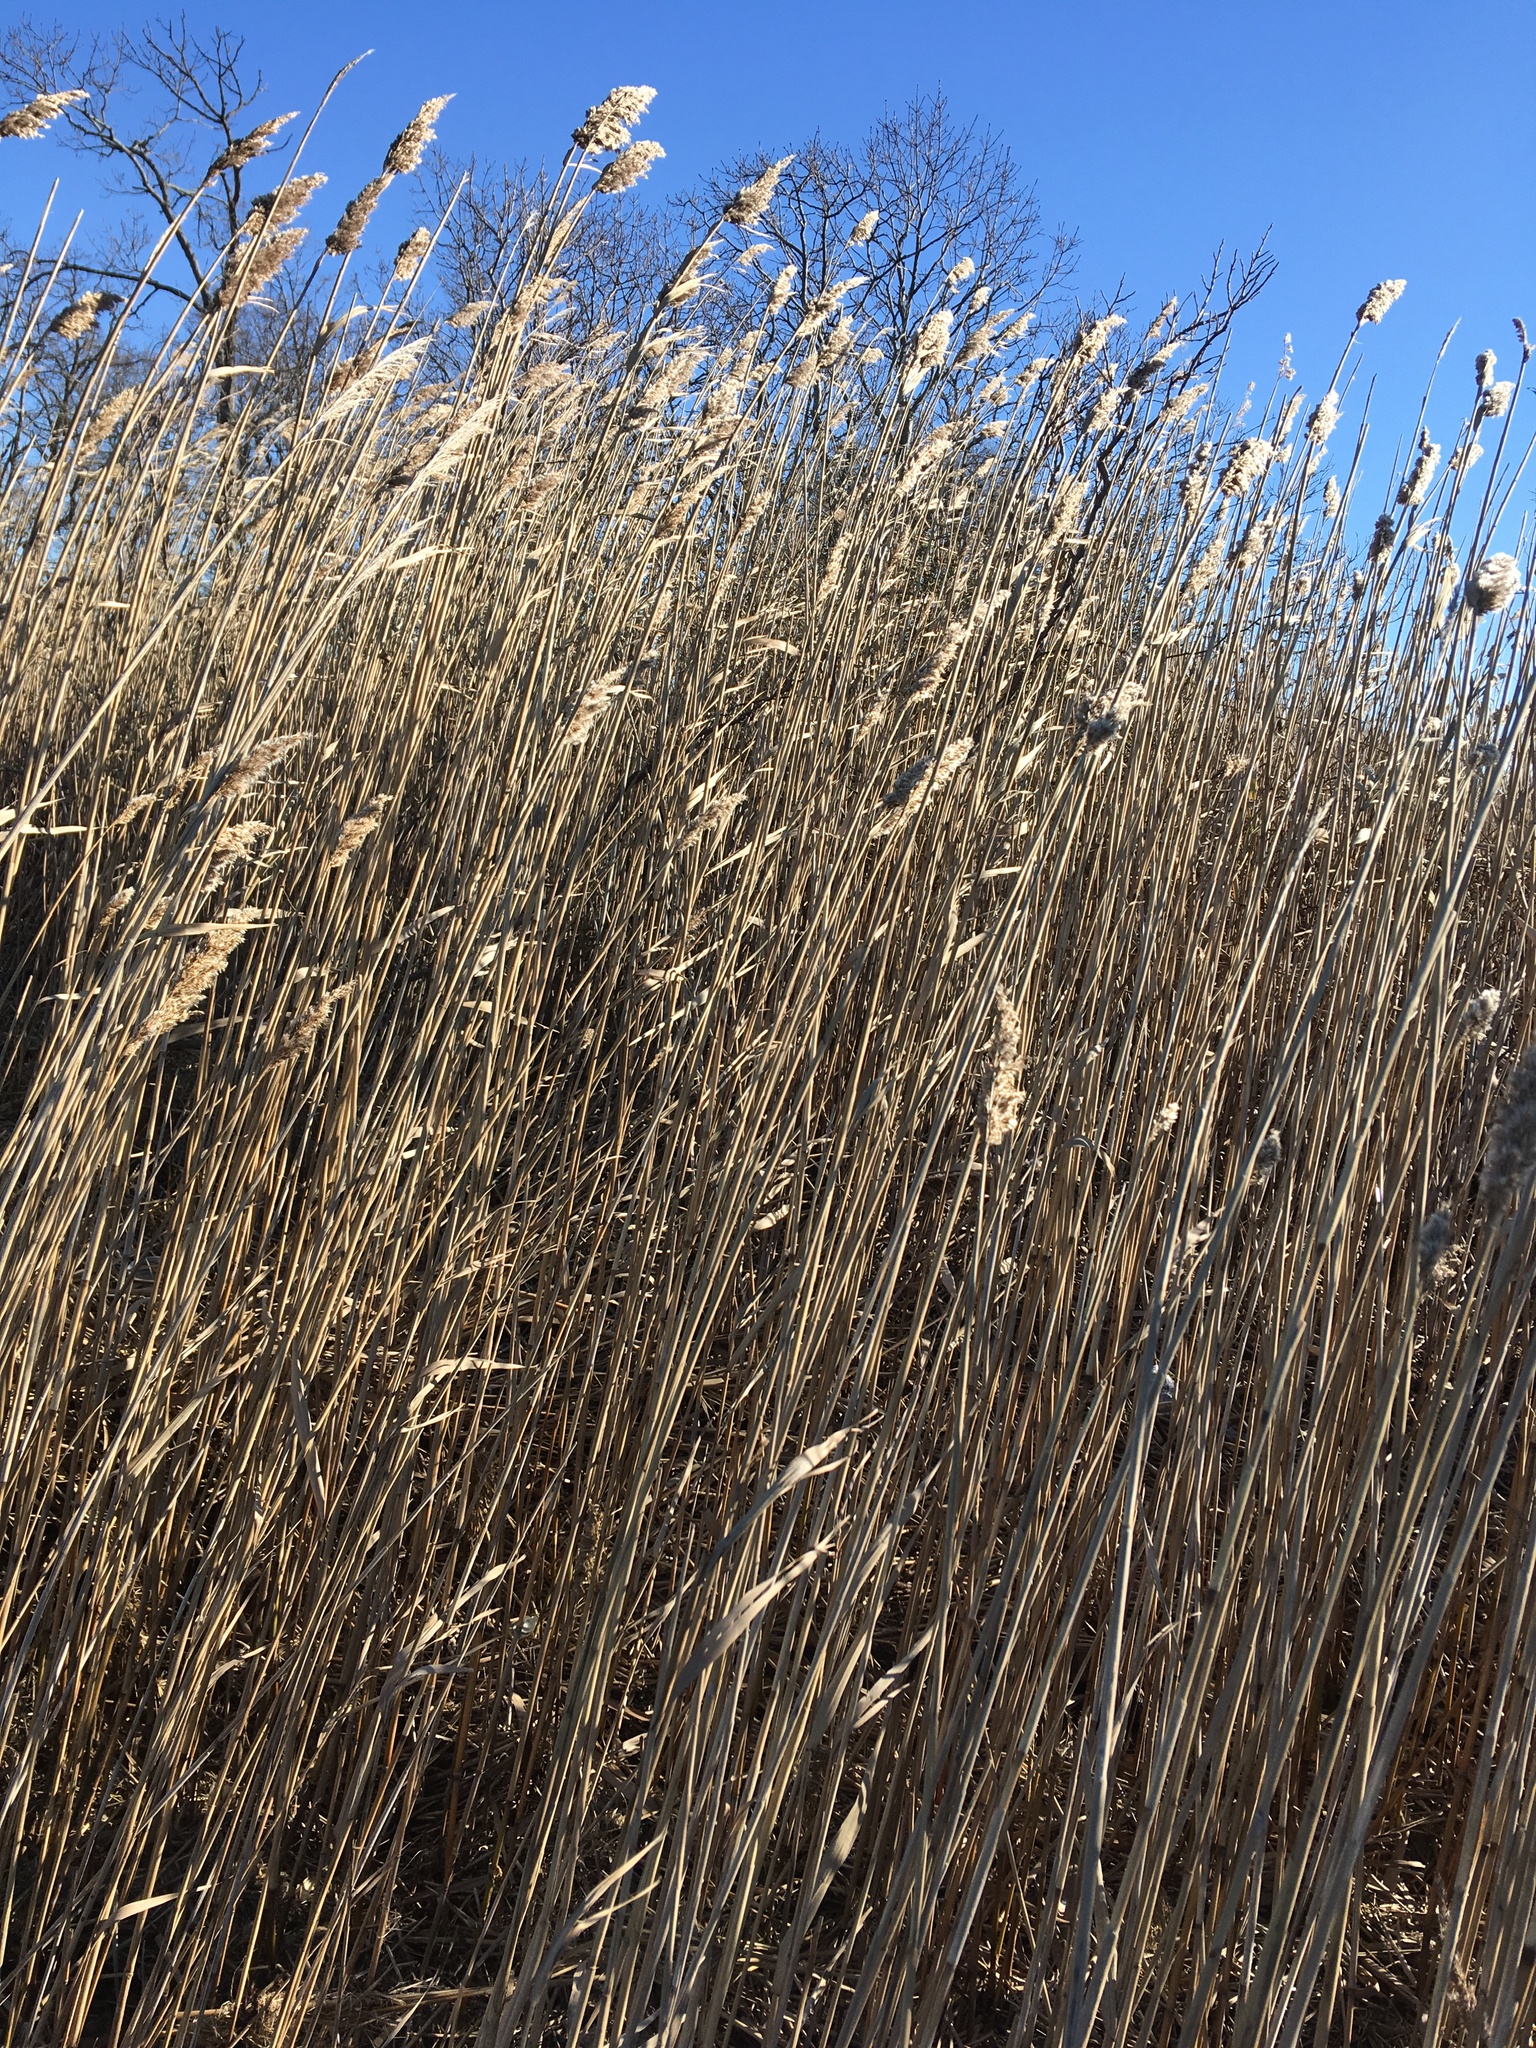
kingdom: Plantae
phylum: Tracheophyta
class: Liliopsida
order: Poales
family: Poaceae
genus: Phragmites
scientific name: Phragmites australis
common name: Common reed
